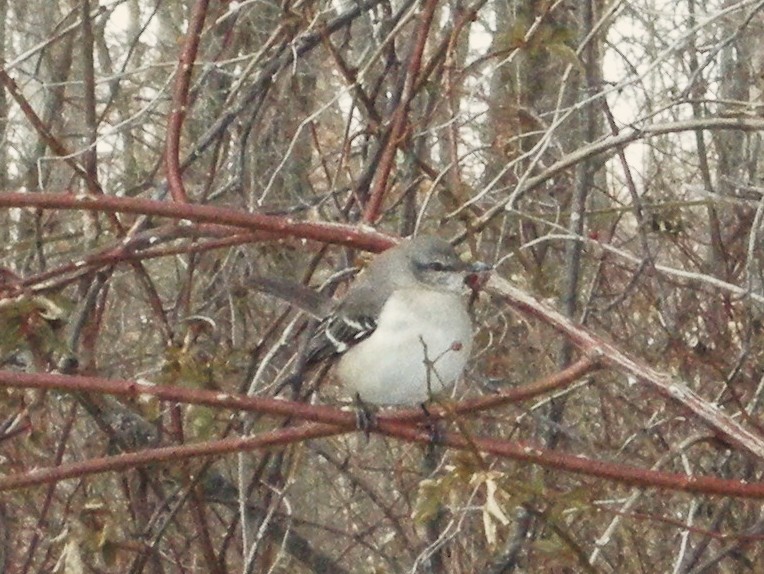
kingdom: Animalia
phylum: Chordata
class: Aves
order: Passeriformes
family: Mimidae
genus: Mimus
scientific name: Mimus polyglottos
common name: Northern mockingbird
